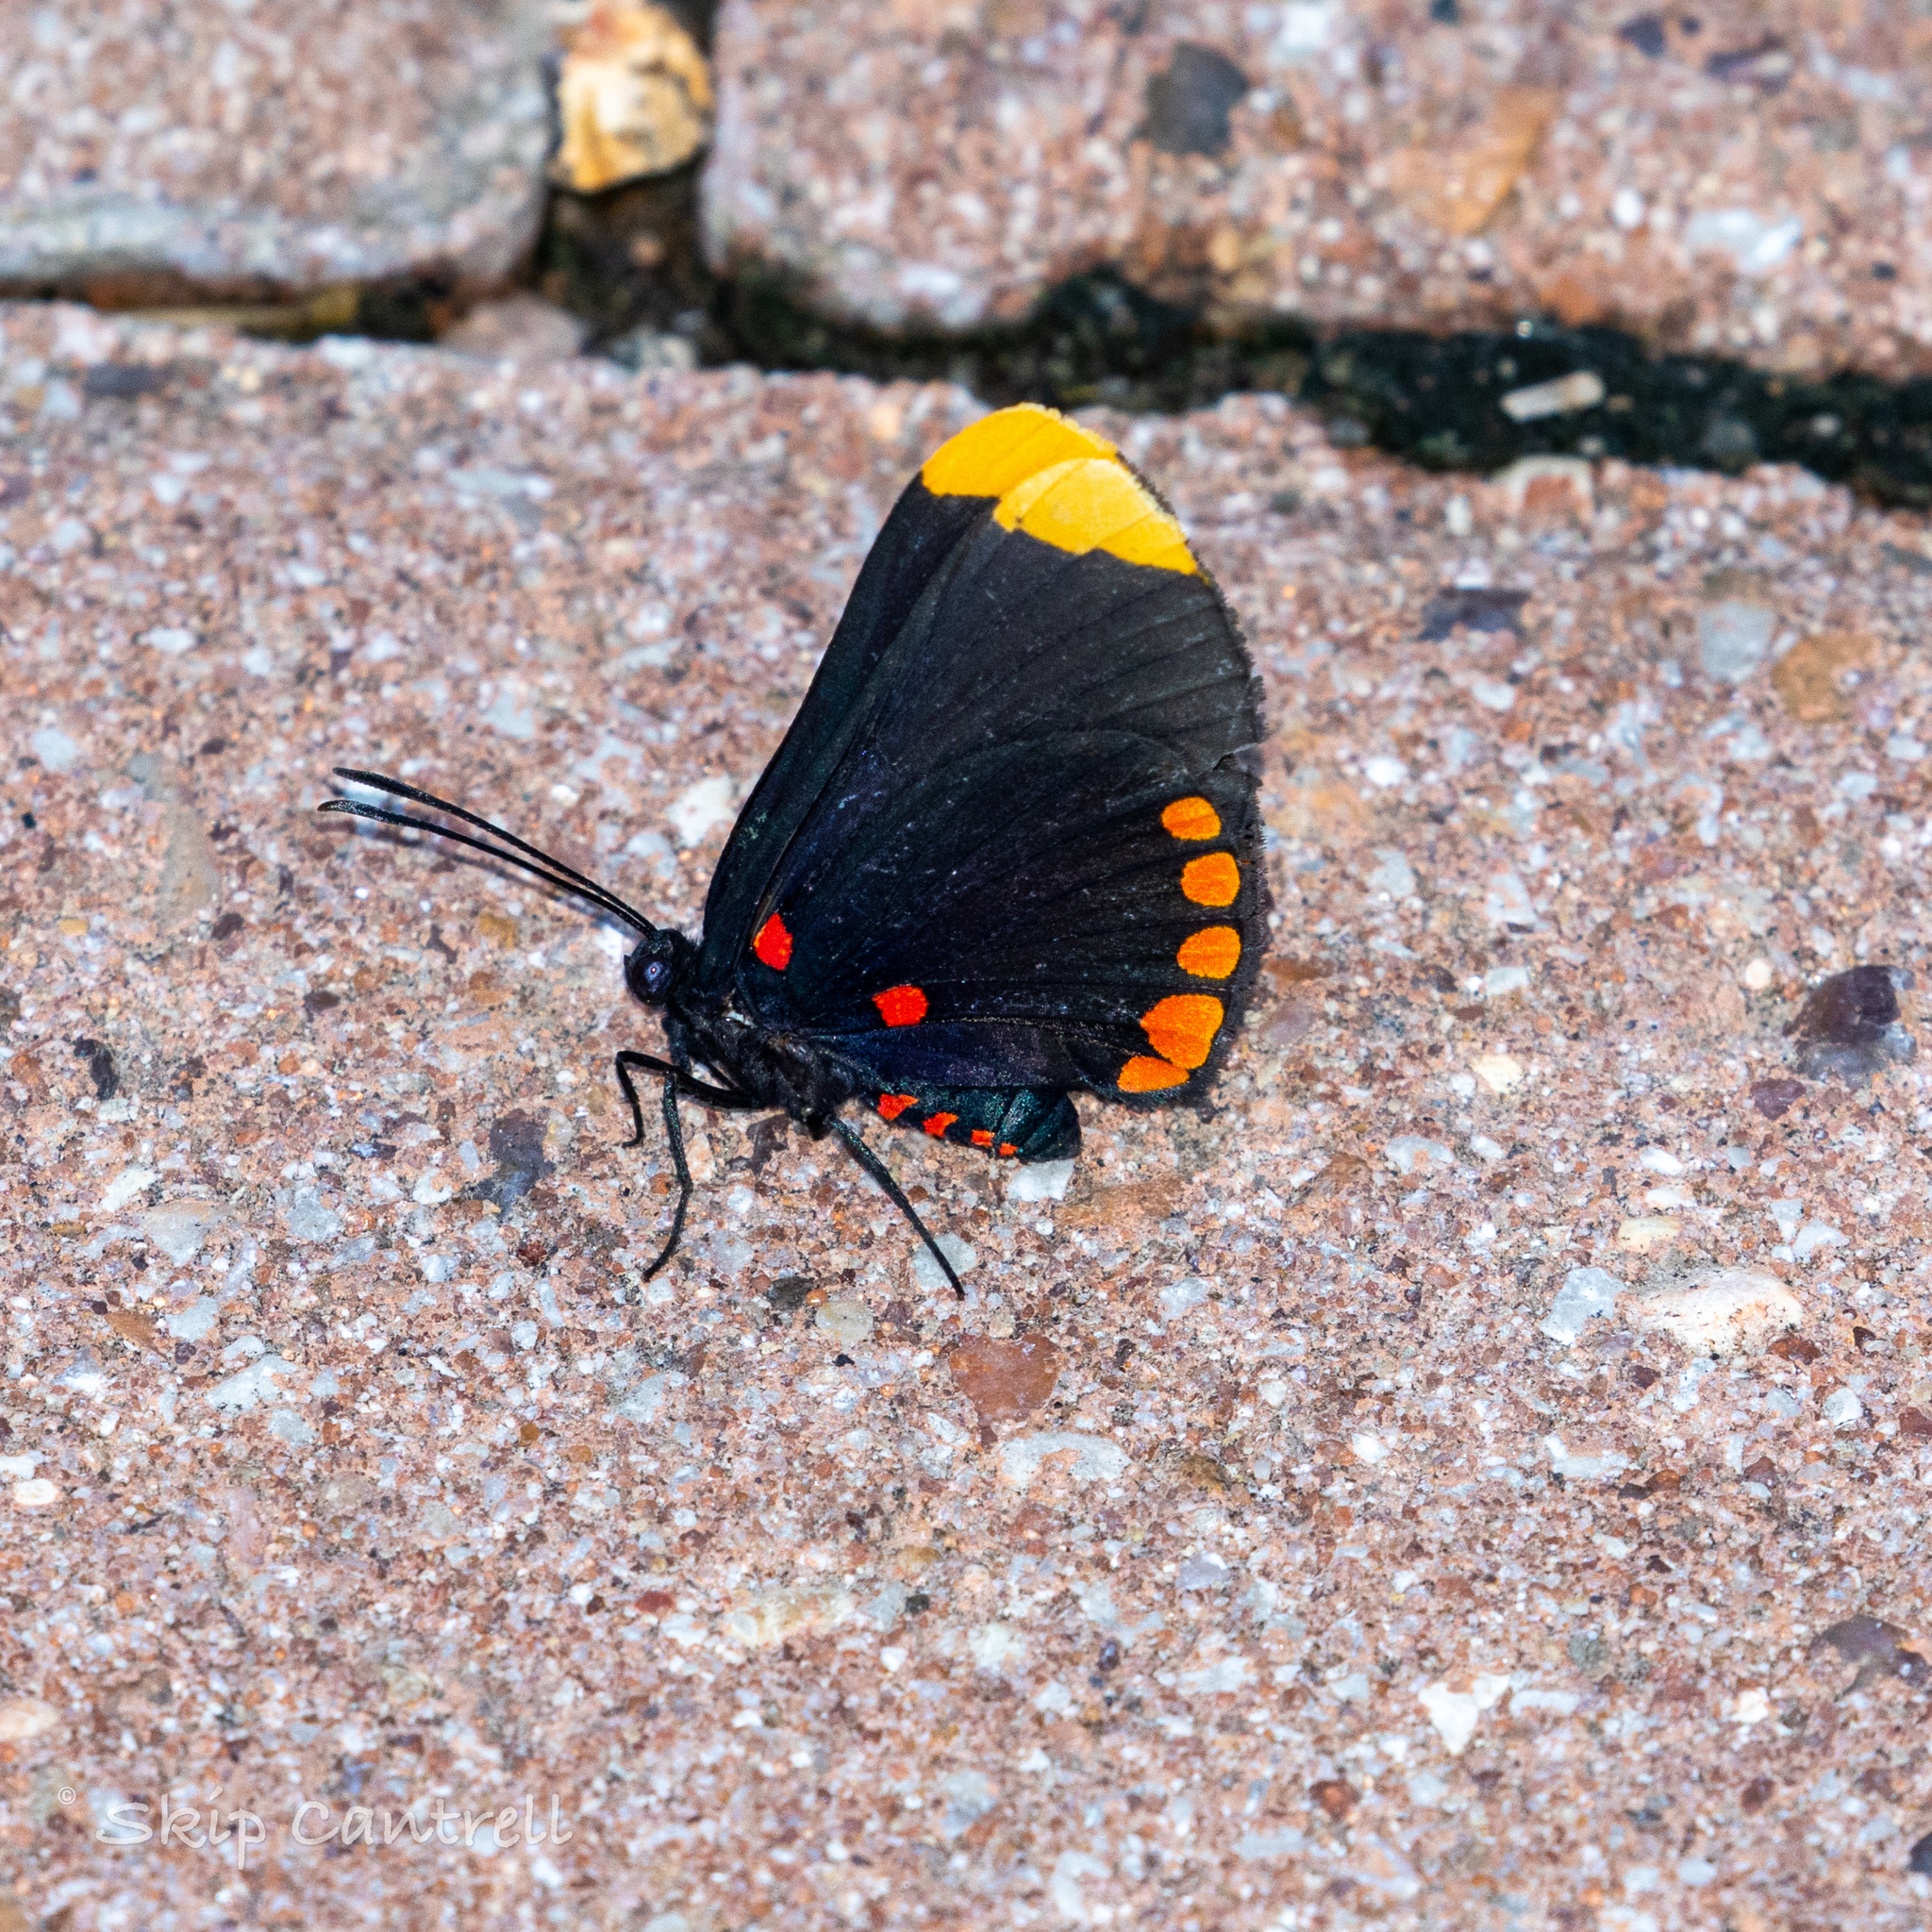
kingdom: Animalia
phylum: Arthropoda
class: Insecta
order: Lepidoptera
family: Lycaenidae
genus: Melanis
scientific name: Melanis pixe
